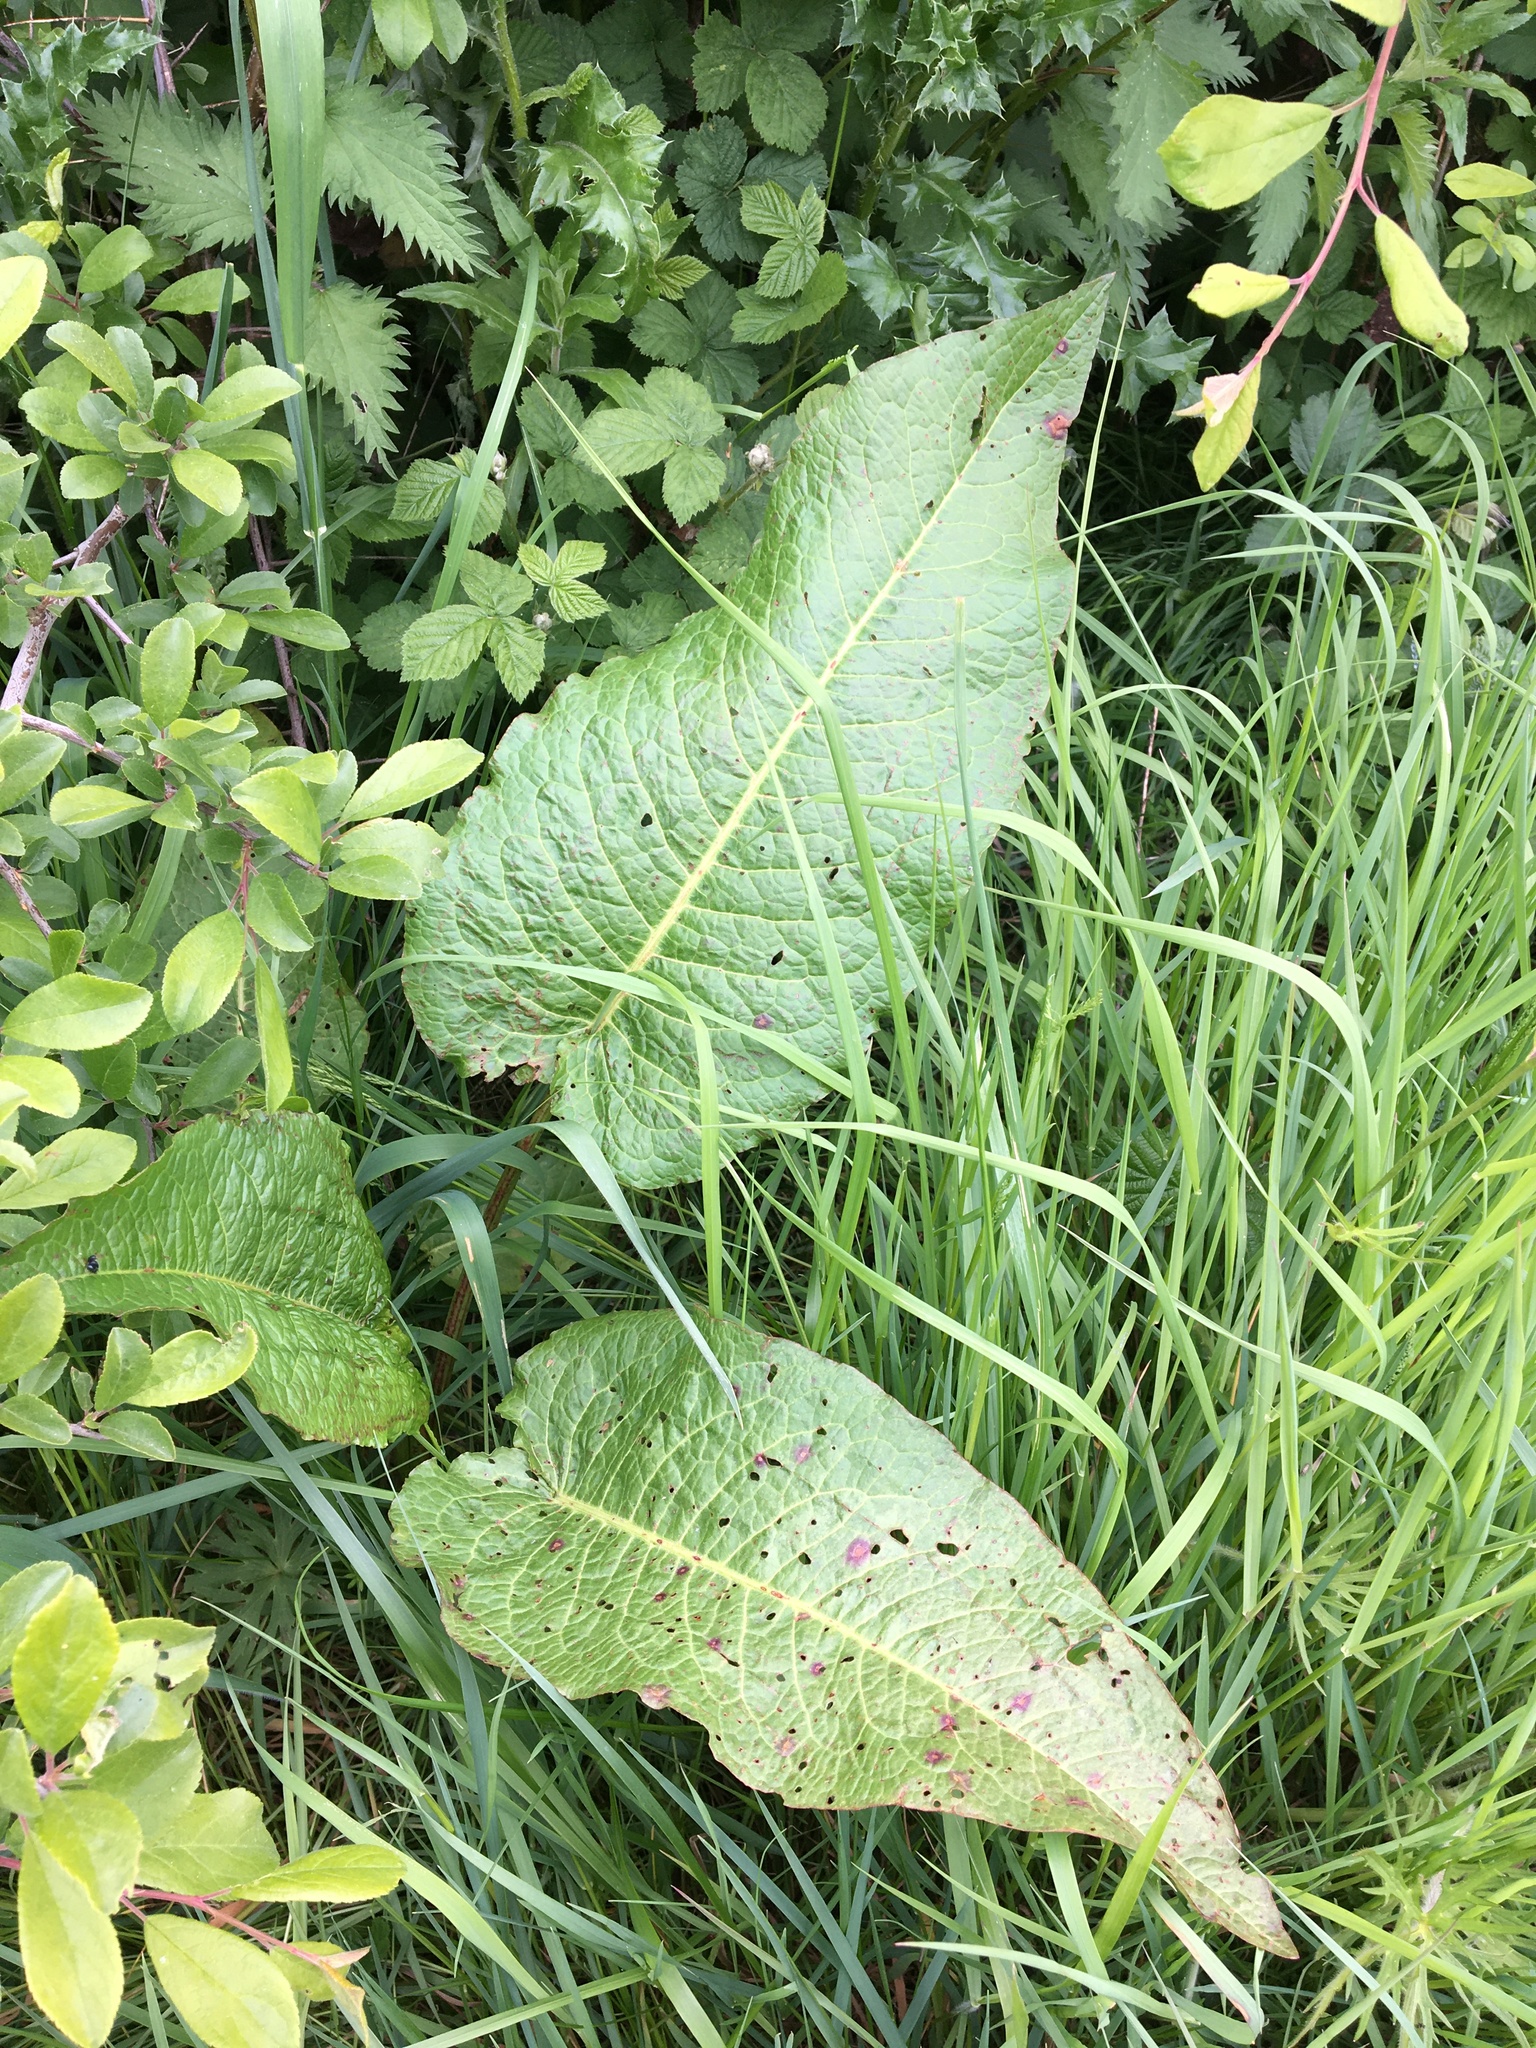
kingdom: Plantae
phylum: Tracheophyta
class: Magnoliopsida
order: Caryophyllales
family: Polygonaceae
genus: Rumex
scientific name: Rumex obtusifolius
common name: Bitter dock
